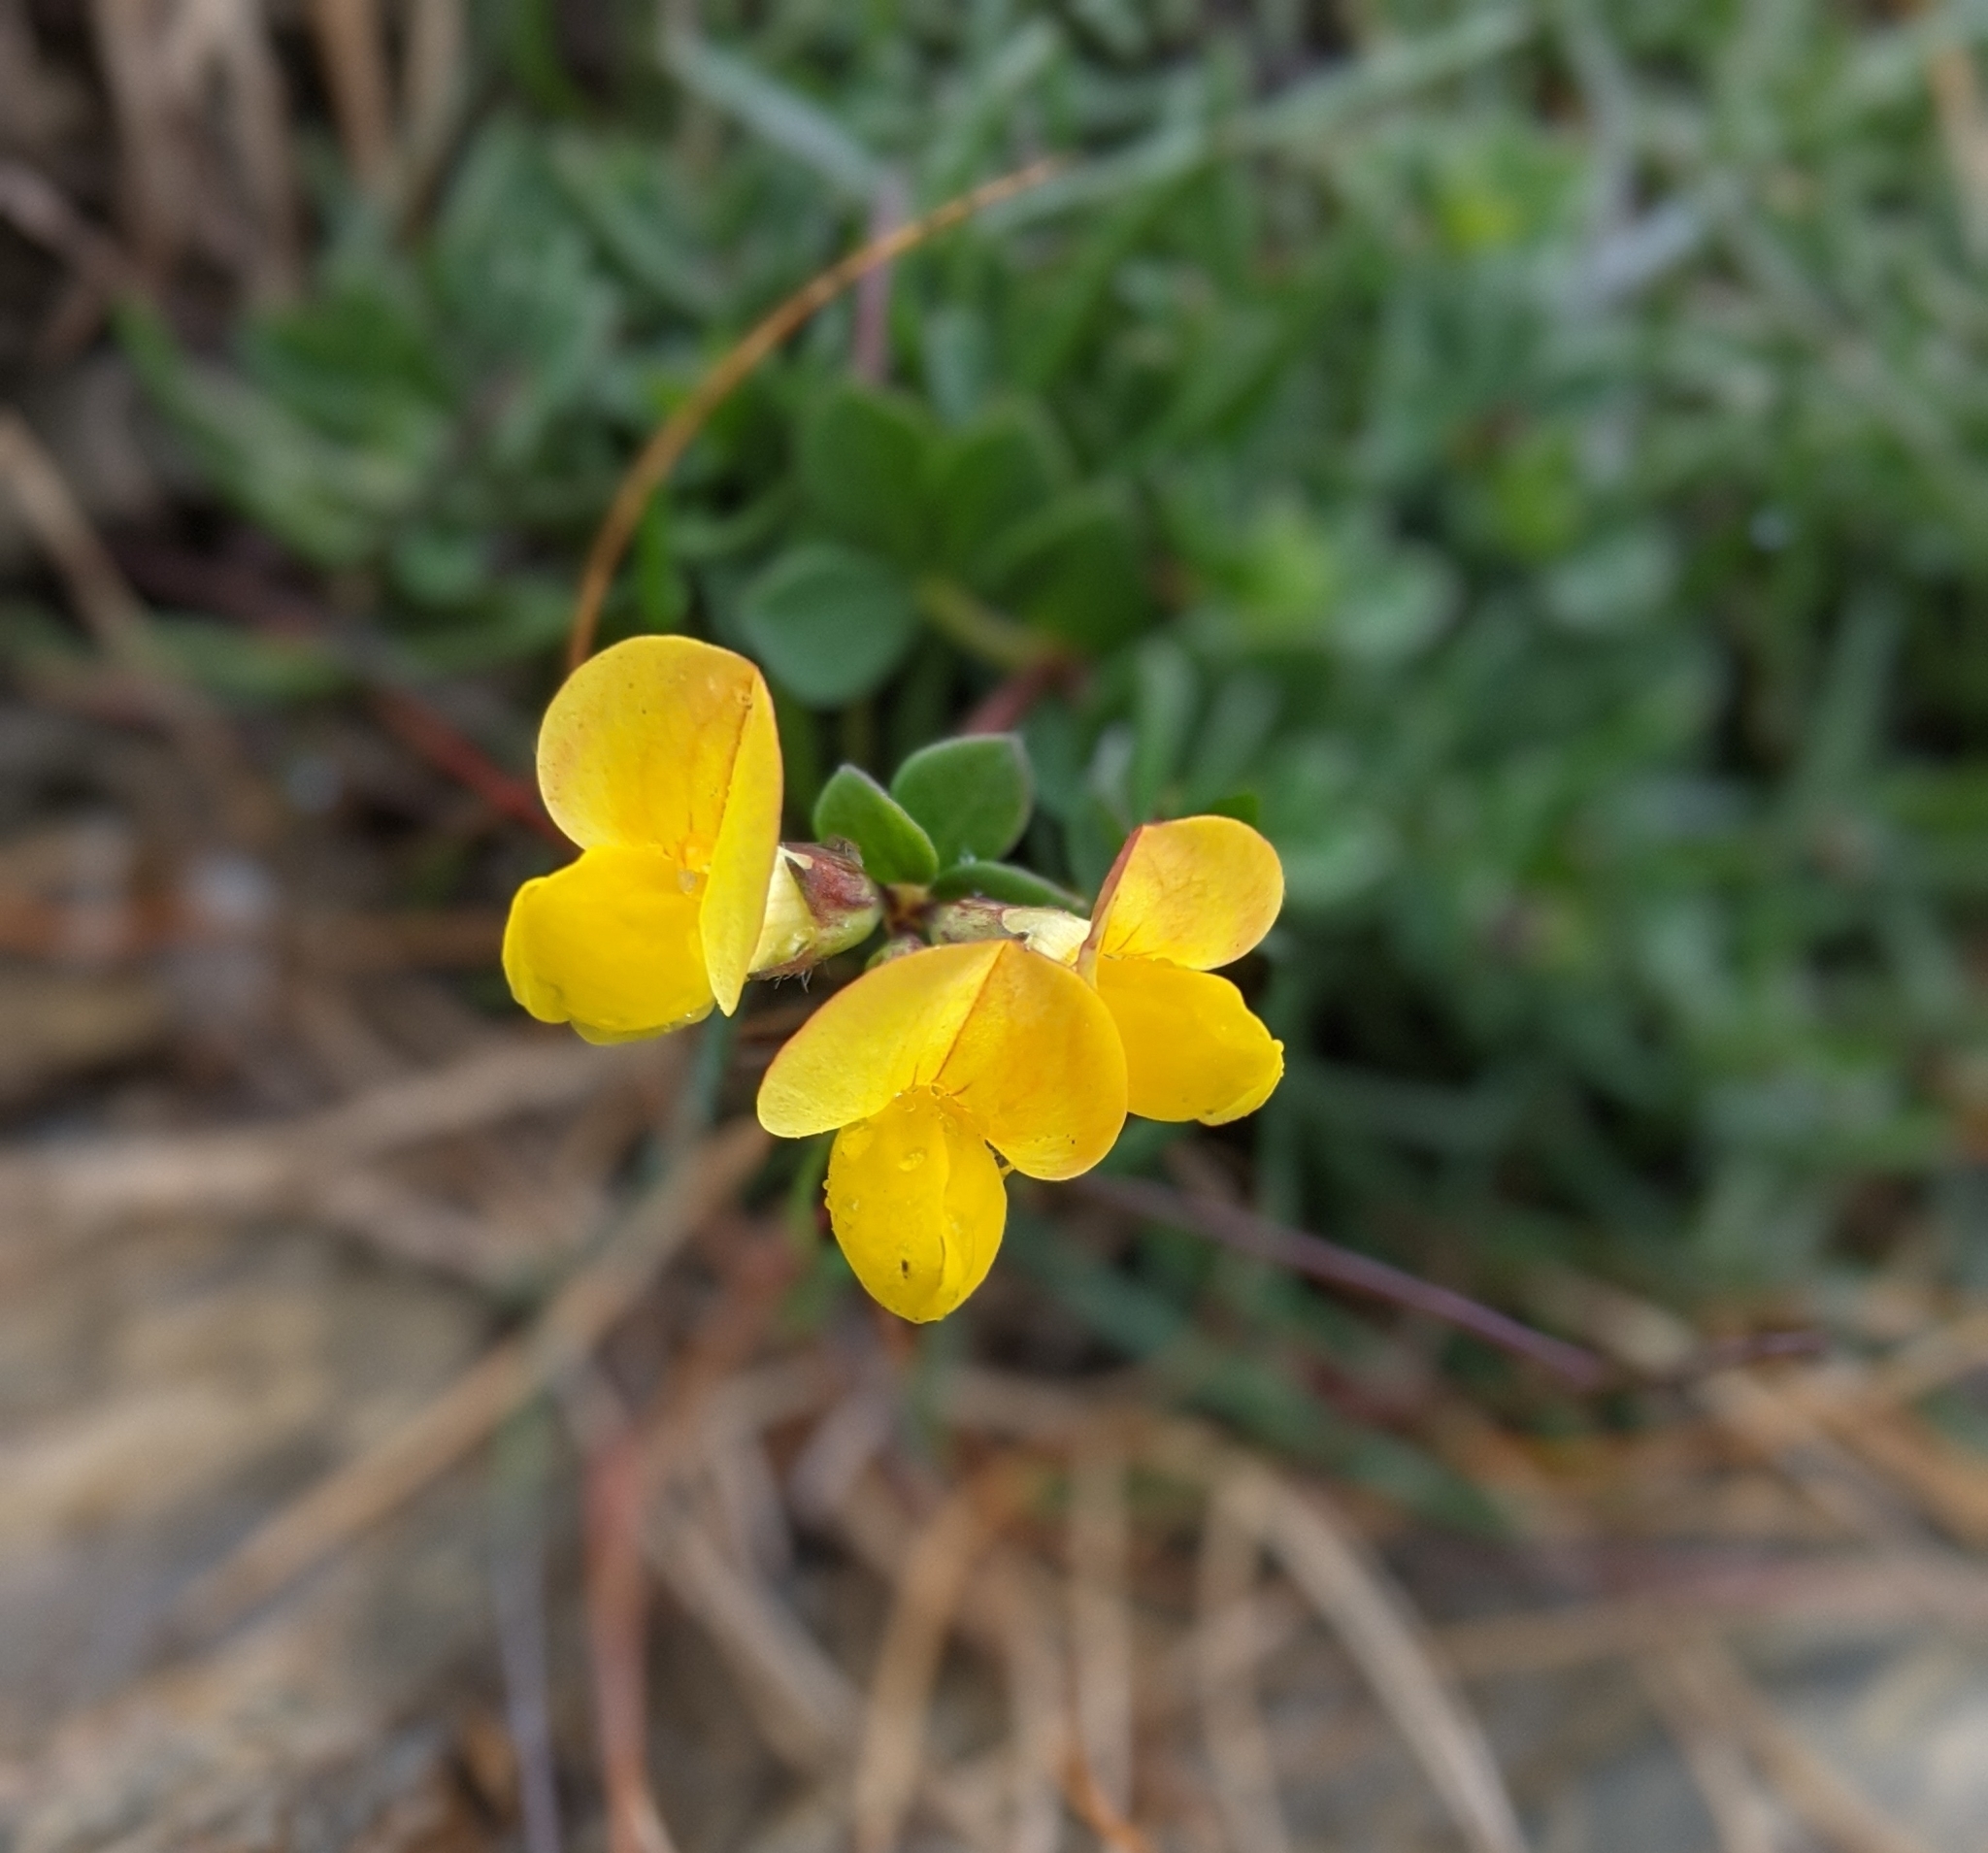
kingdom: Plantae
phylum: Tracheophyta
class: Magnoliopsida
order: Fabales
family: Fabaceae
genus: Lotus
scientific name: Lotus corniculatus
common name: Common bird's-foot-trefoil
